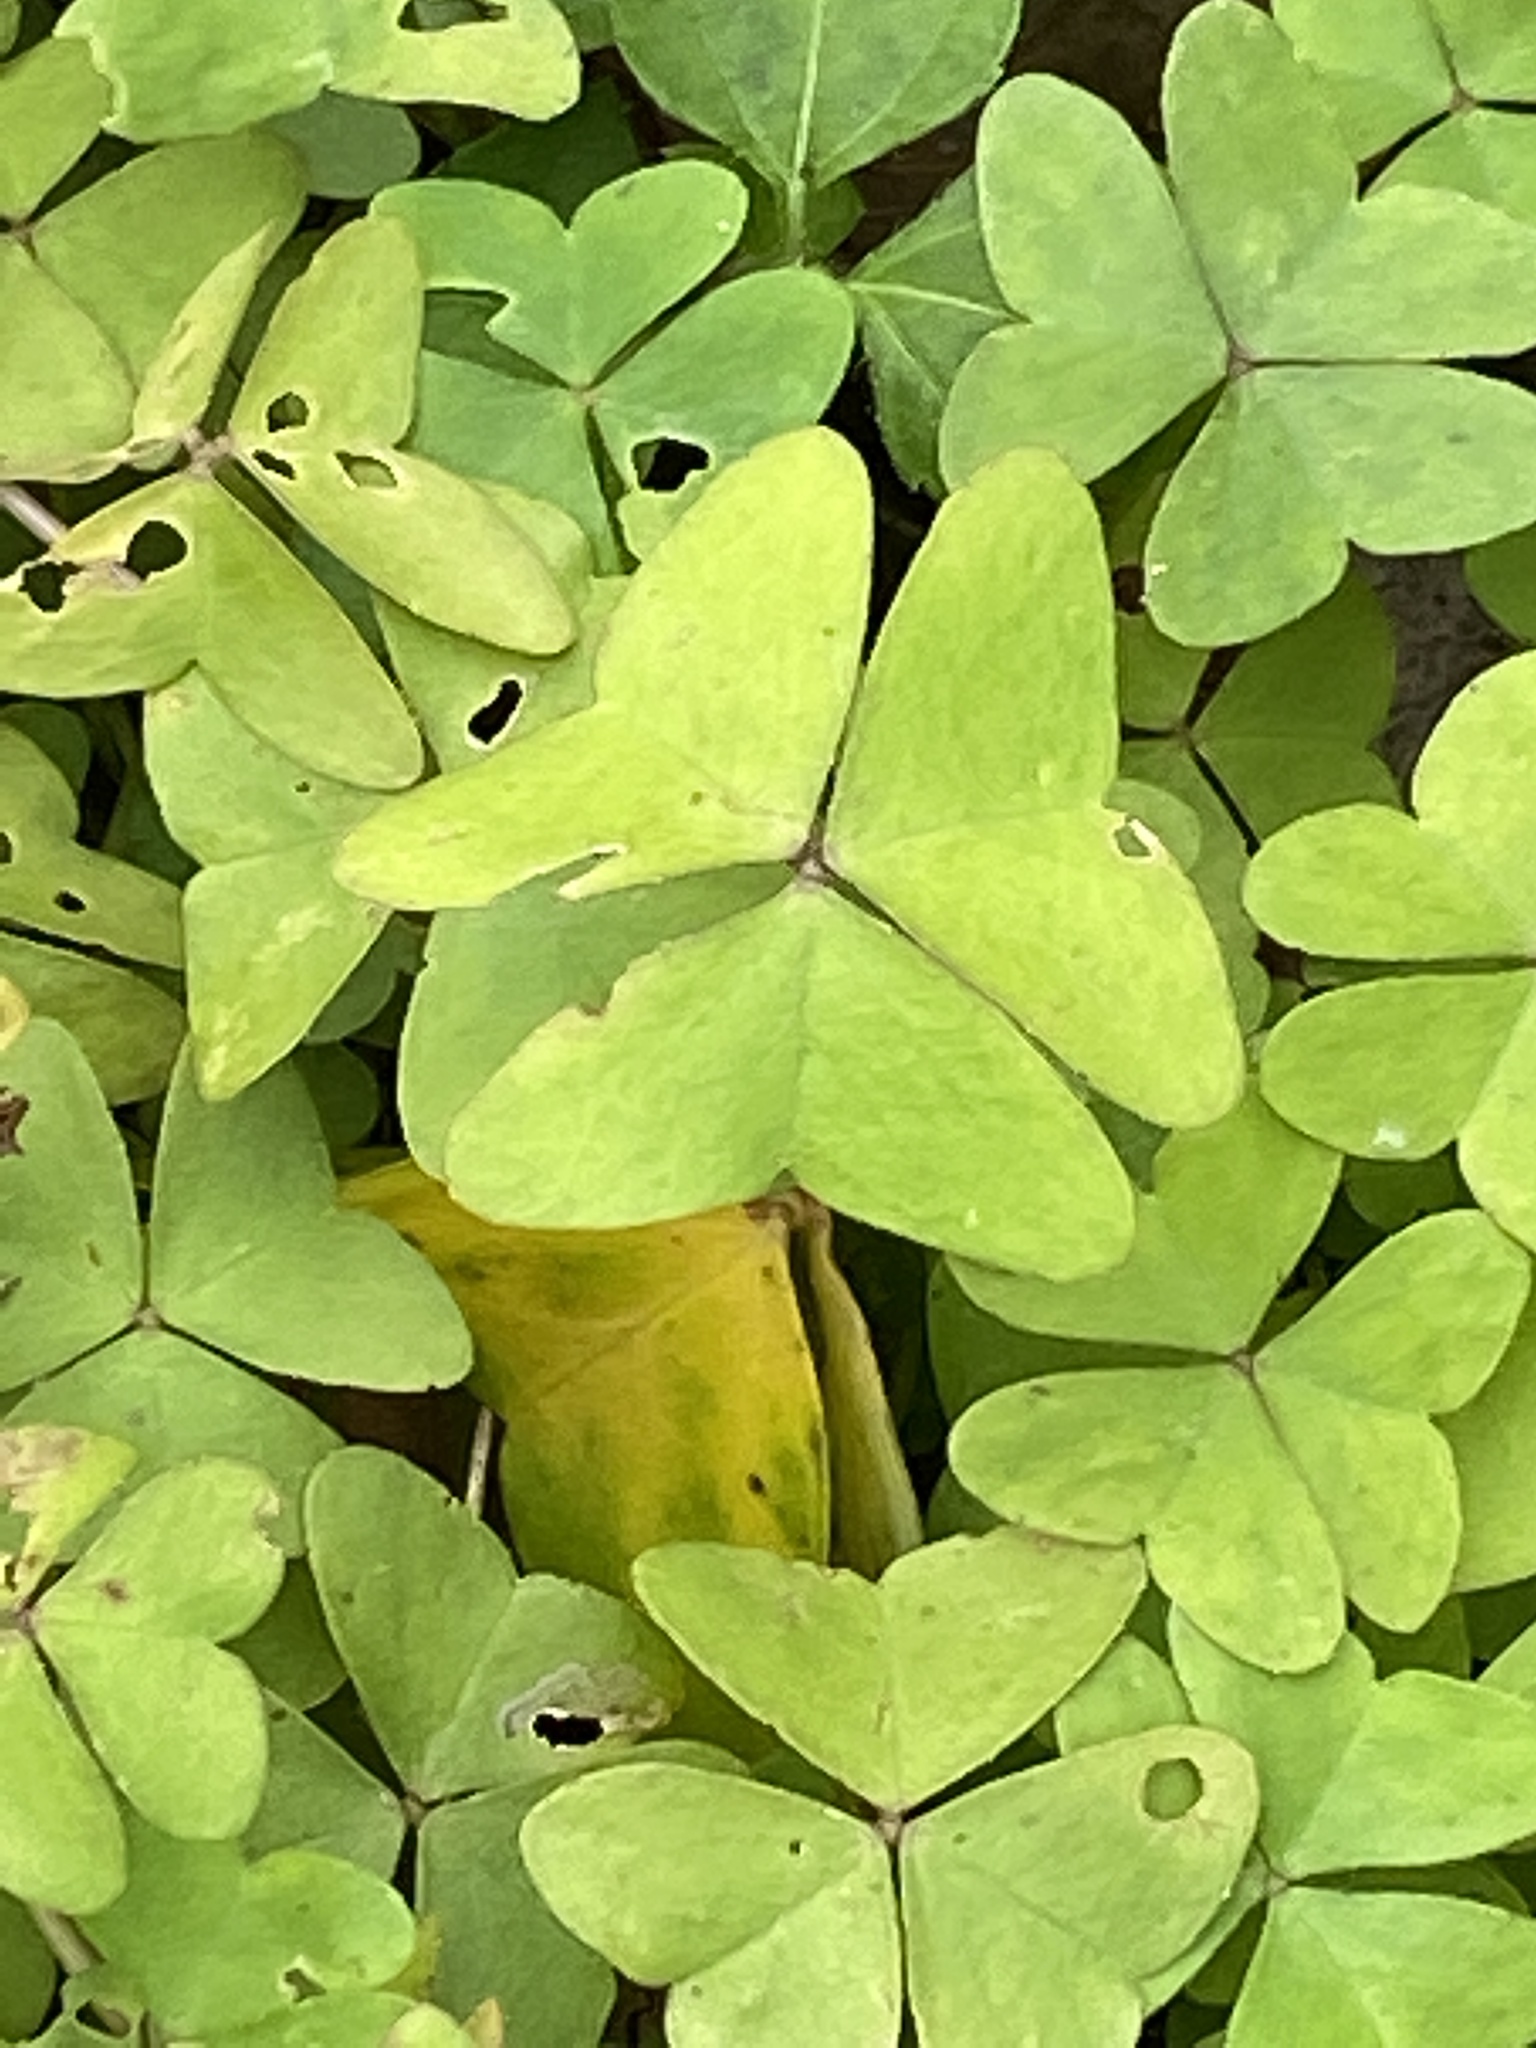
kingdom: Plantae
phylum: Tracheophyta
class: Magnoliopsida
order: Oxalidales
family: Oxalidaceae
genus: Oxalis
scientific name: Oxalis drummondii
